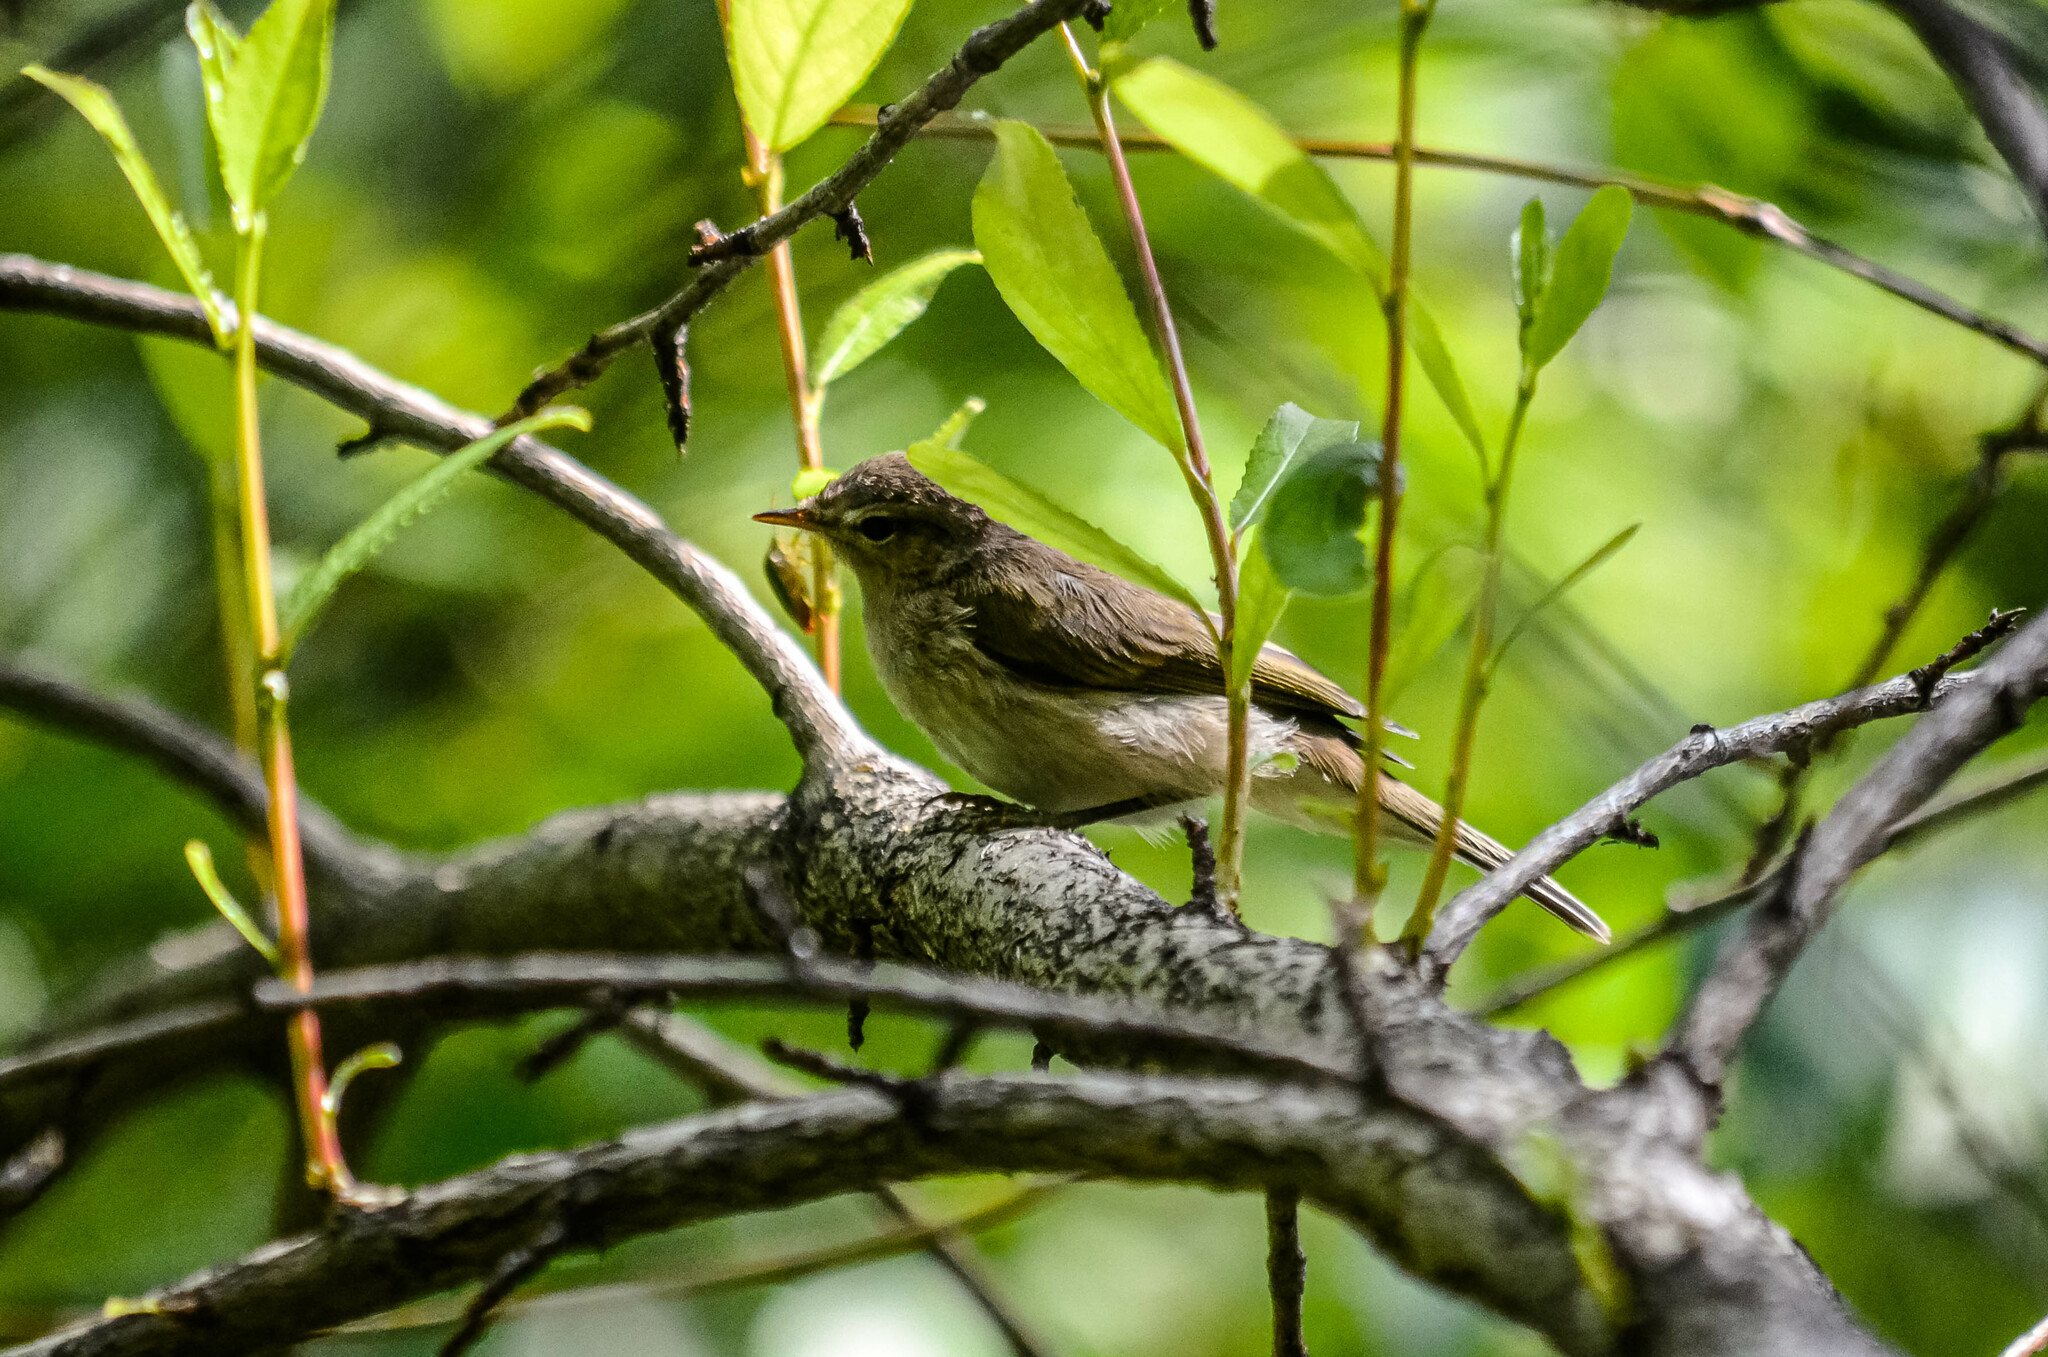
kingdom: Animalia
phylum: Chordata
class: Aves
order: Passeriformes
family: Phylloscopidae
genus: Phylloscopus
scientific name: Phylloscopus collybita
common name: Common chiffchaff
